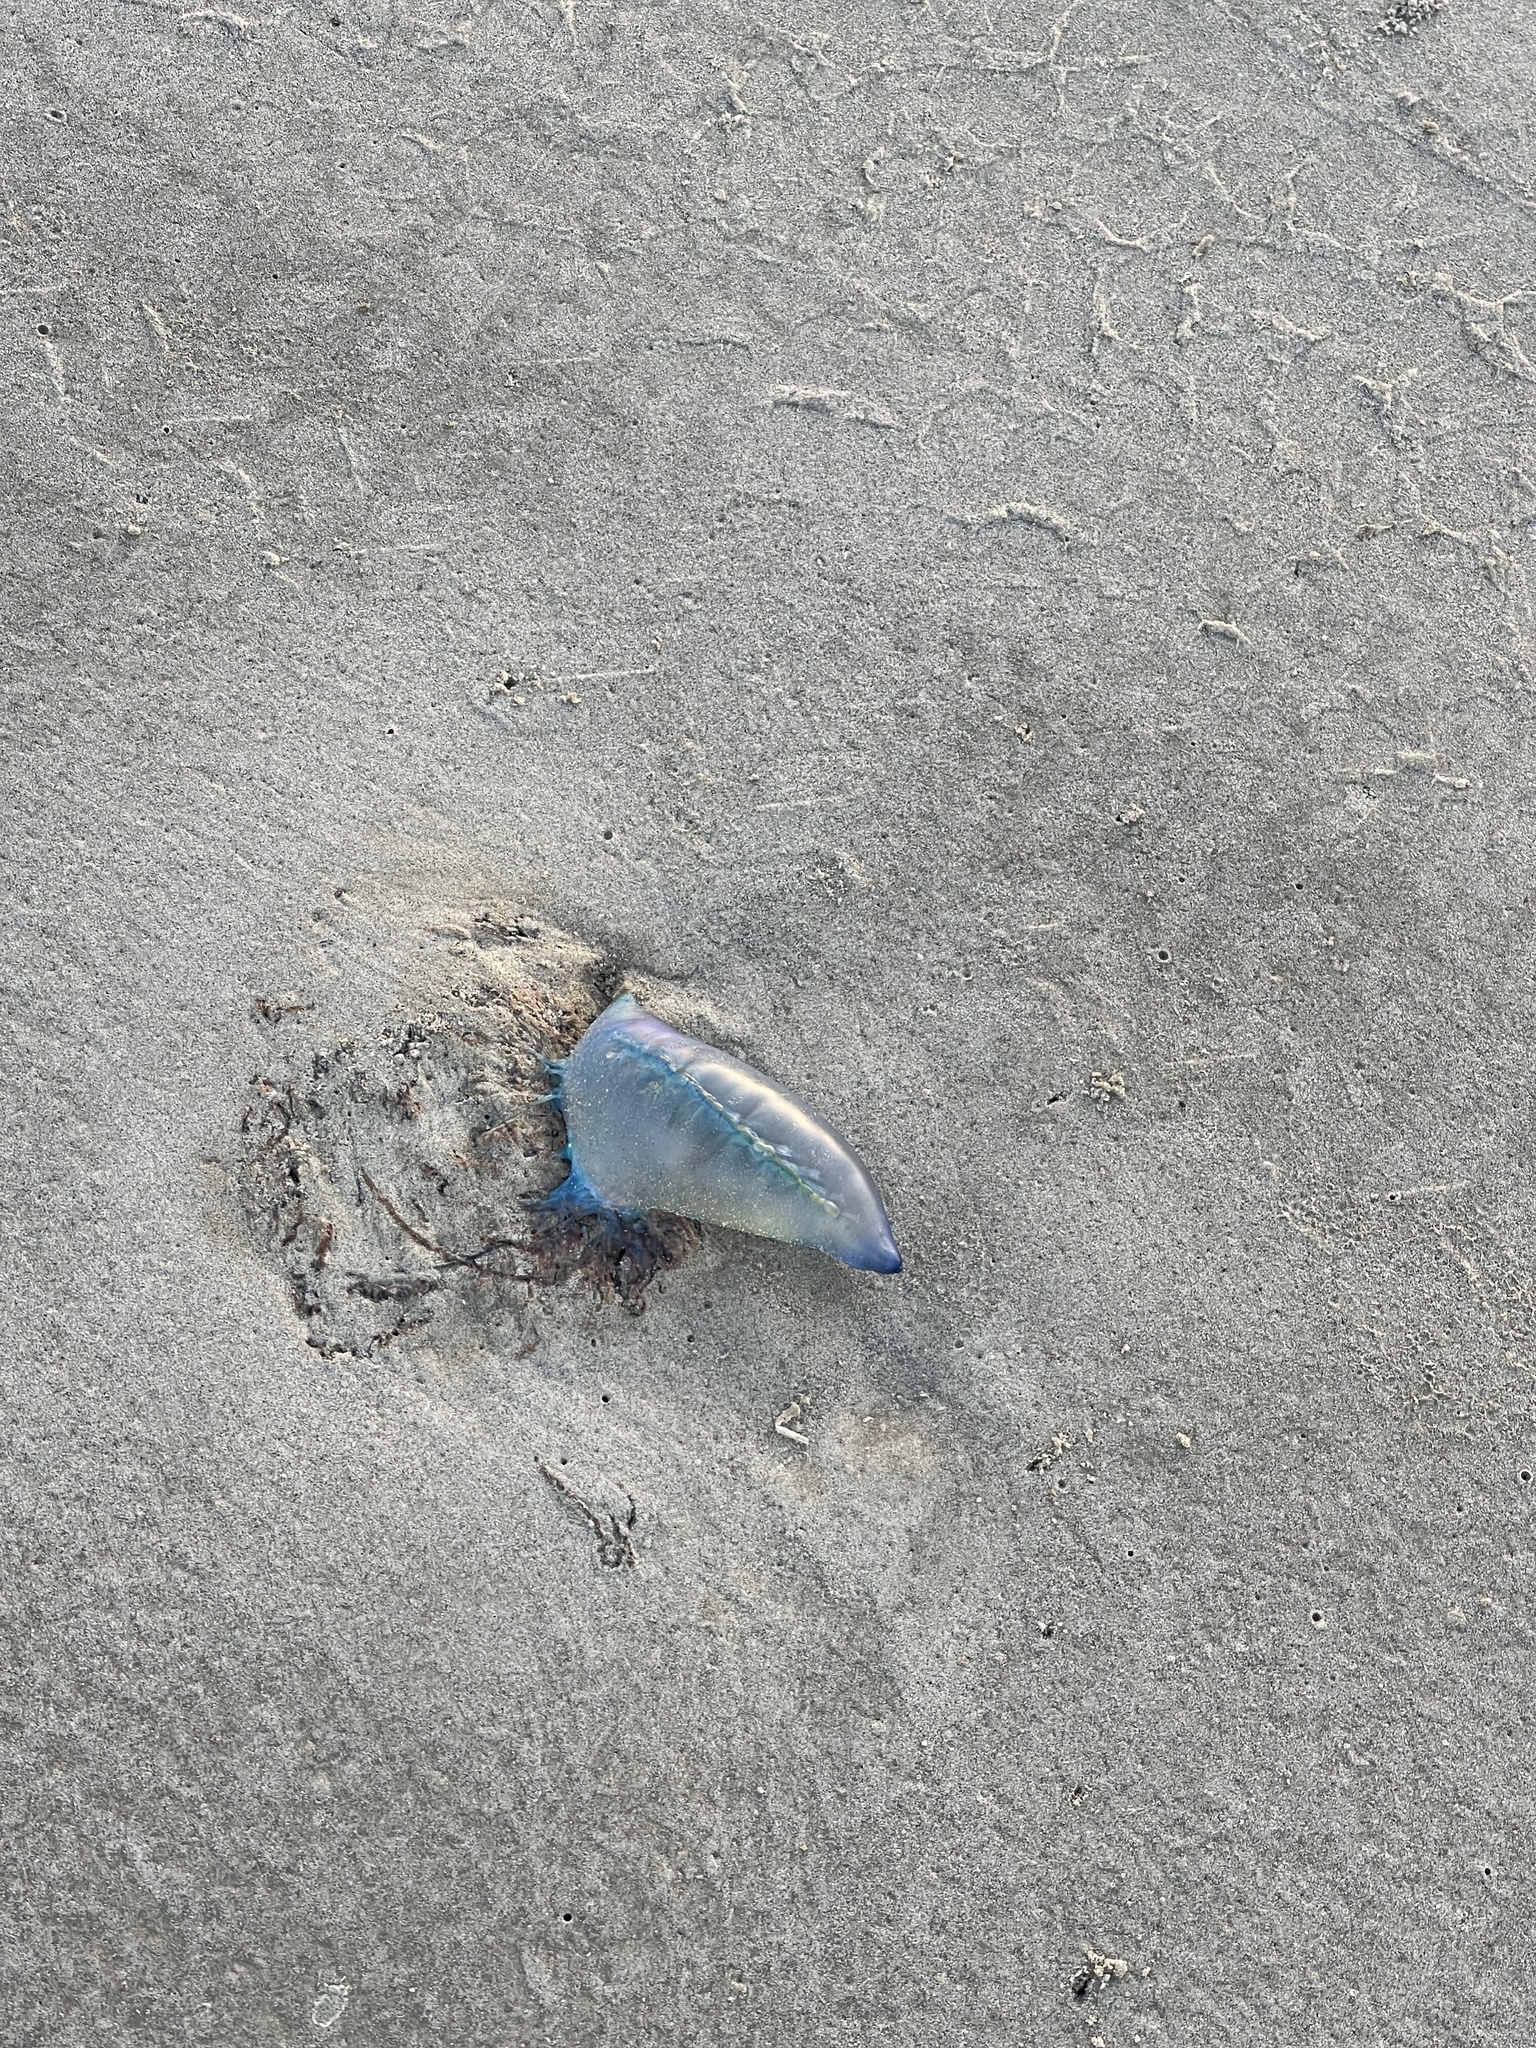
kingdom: Animalia
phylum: Cnidaria
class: Hydrozoa
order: Siphonophorae
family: Physaliidae
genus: Physalia
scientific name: Physalia physalis
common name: Portuguese man-of-war
